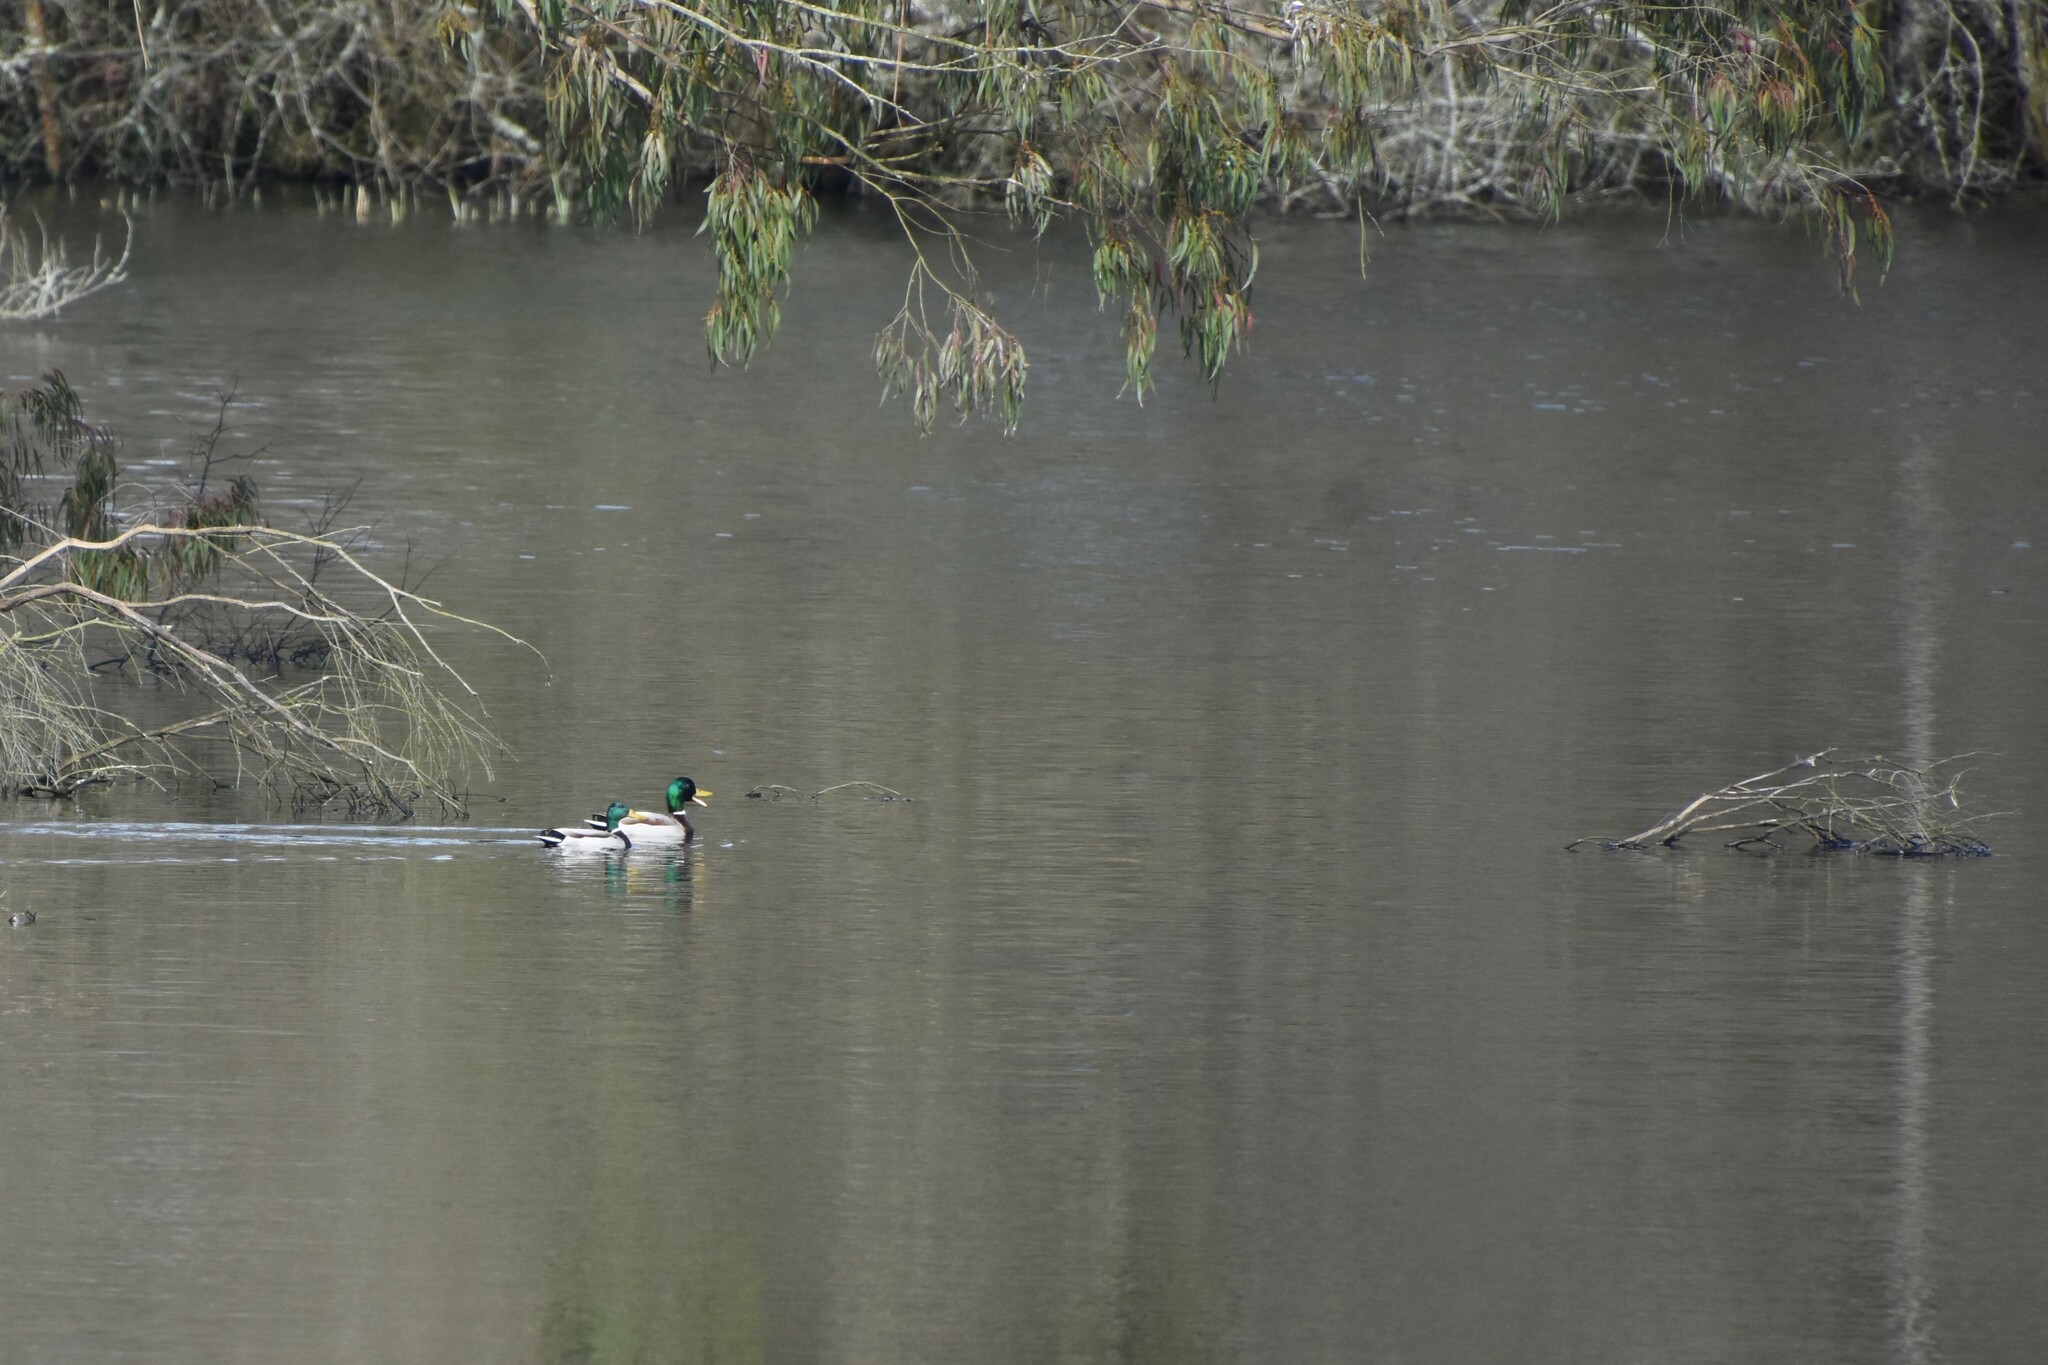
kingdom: Animalia
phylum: Chordata
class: Aves
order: Anseriformes
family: Anatidae
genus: Anas
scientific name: Anas platyrhynchos
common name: Mallard
